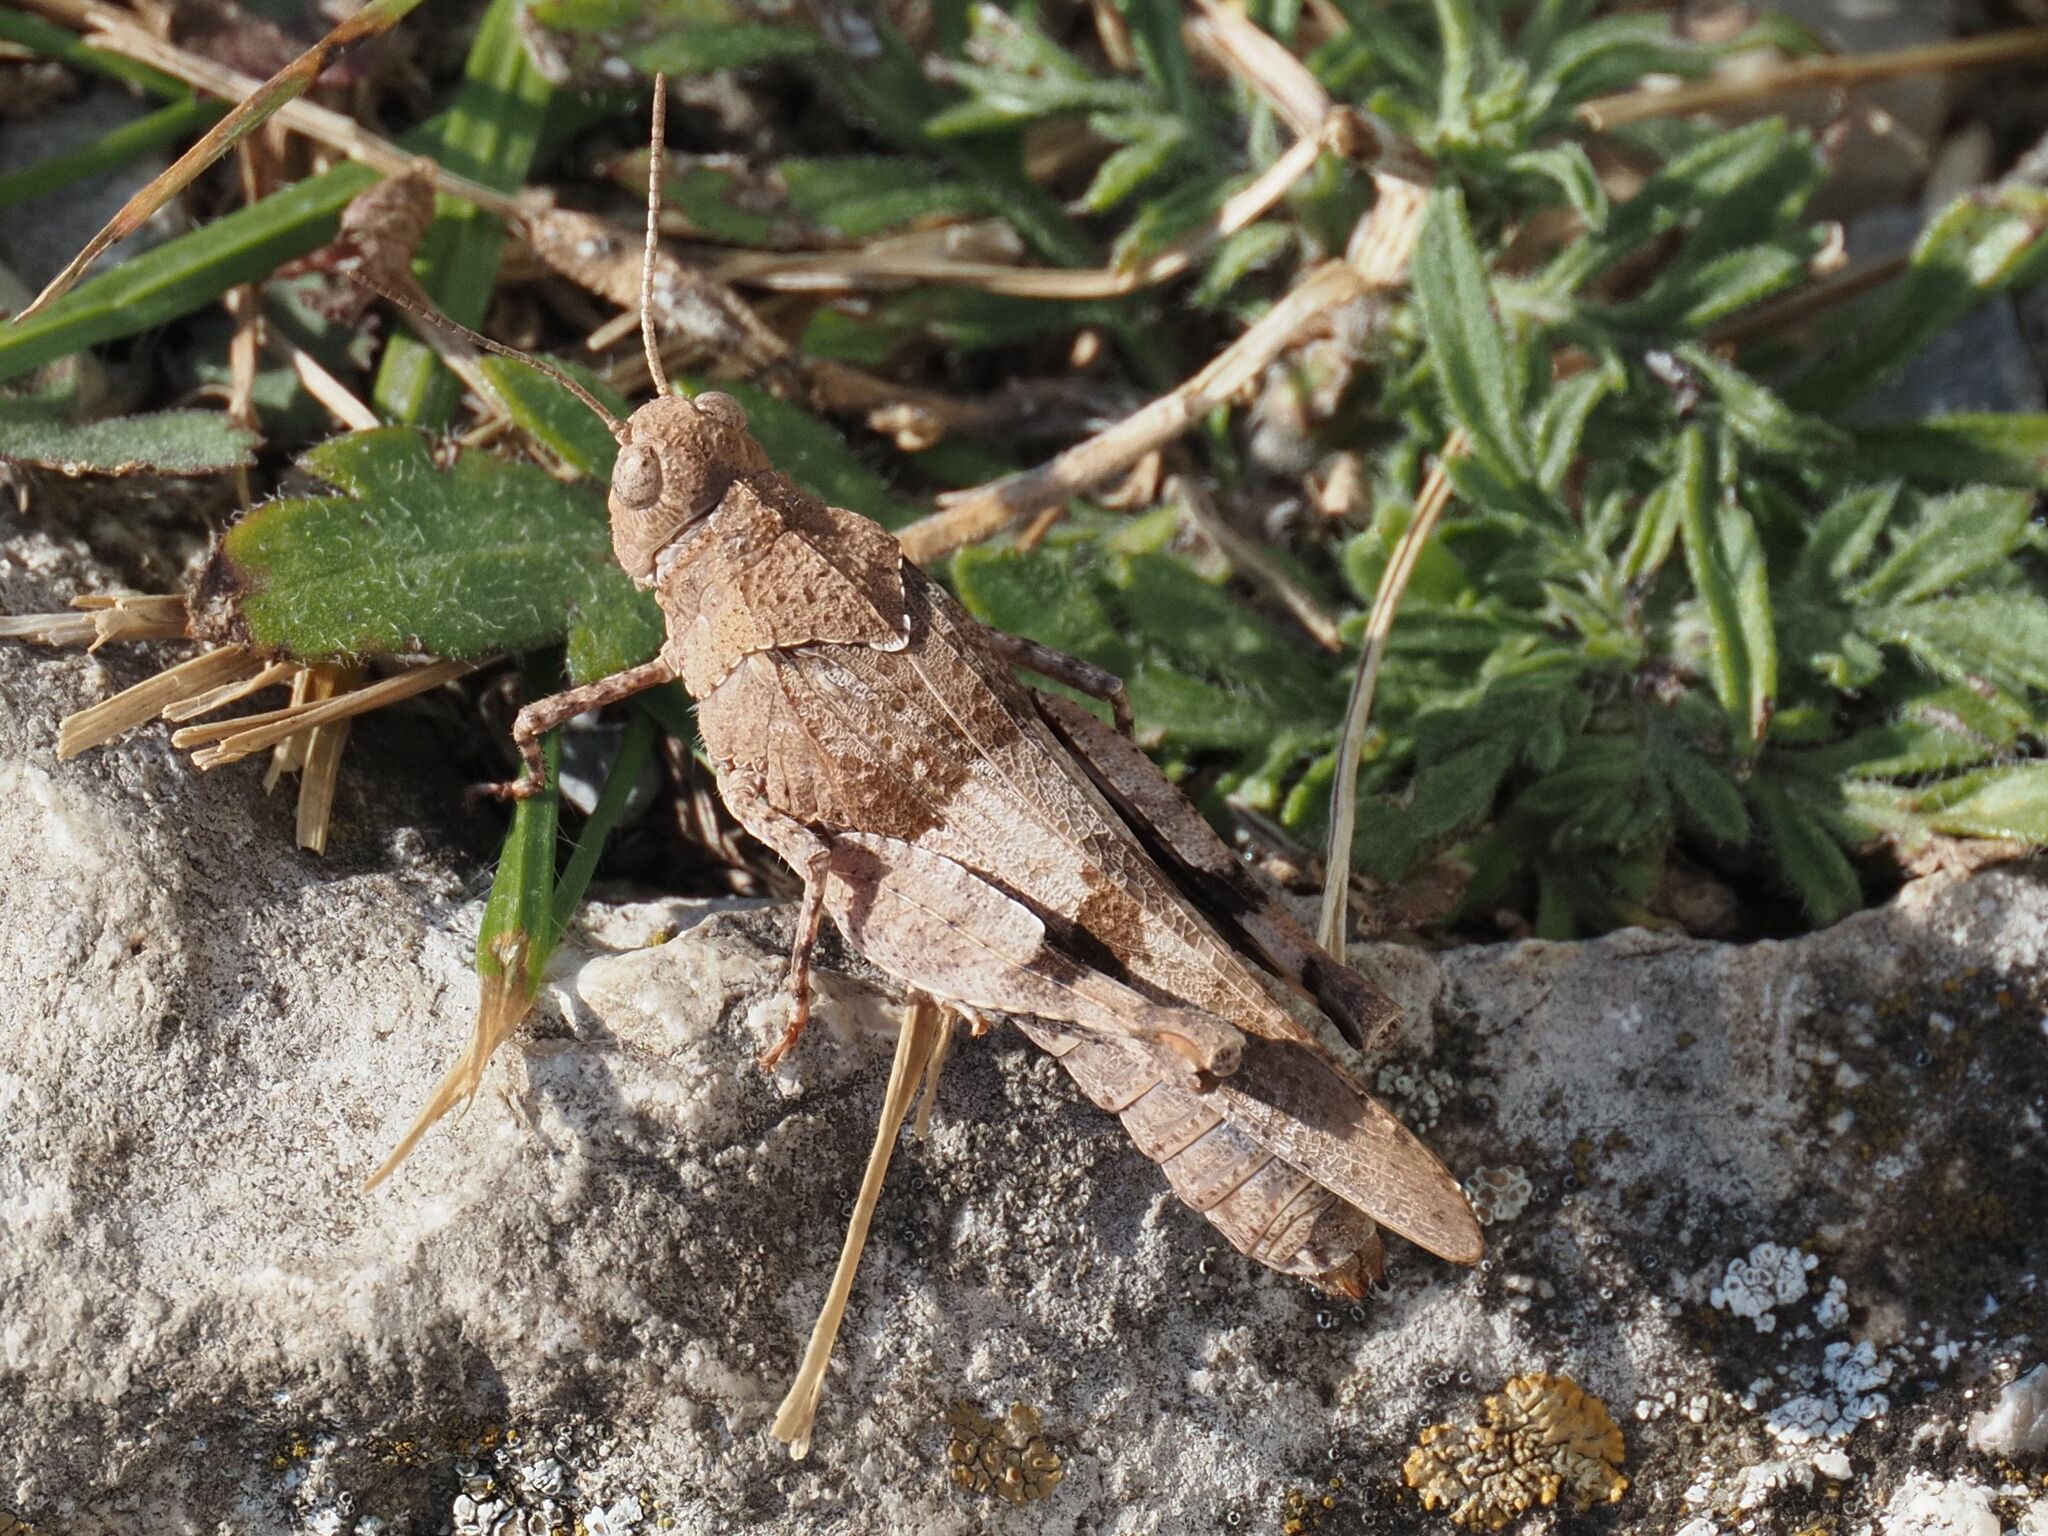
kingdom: Animalia
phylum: Arthropoda
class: Insecta
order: Orthoptera
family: Acrididae
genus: Oedipoda
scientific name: Oedipoda caerulescens
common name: Blue-winged grasshopper
